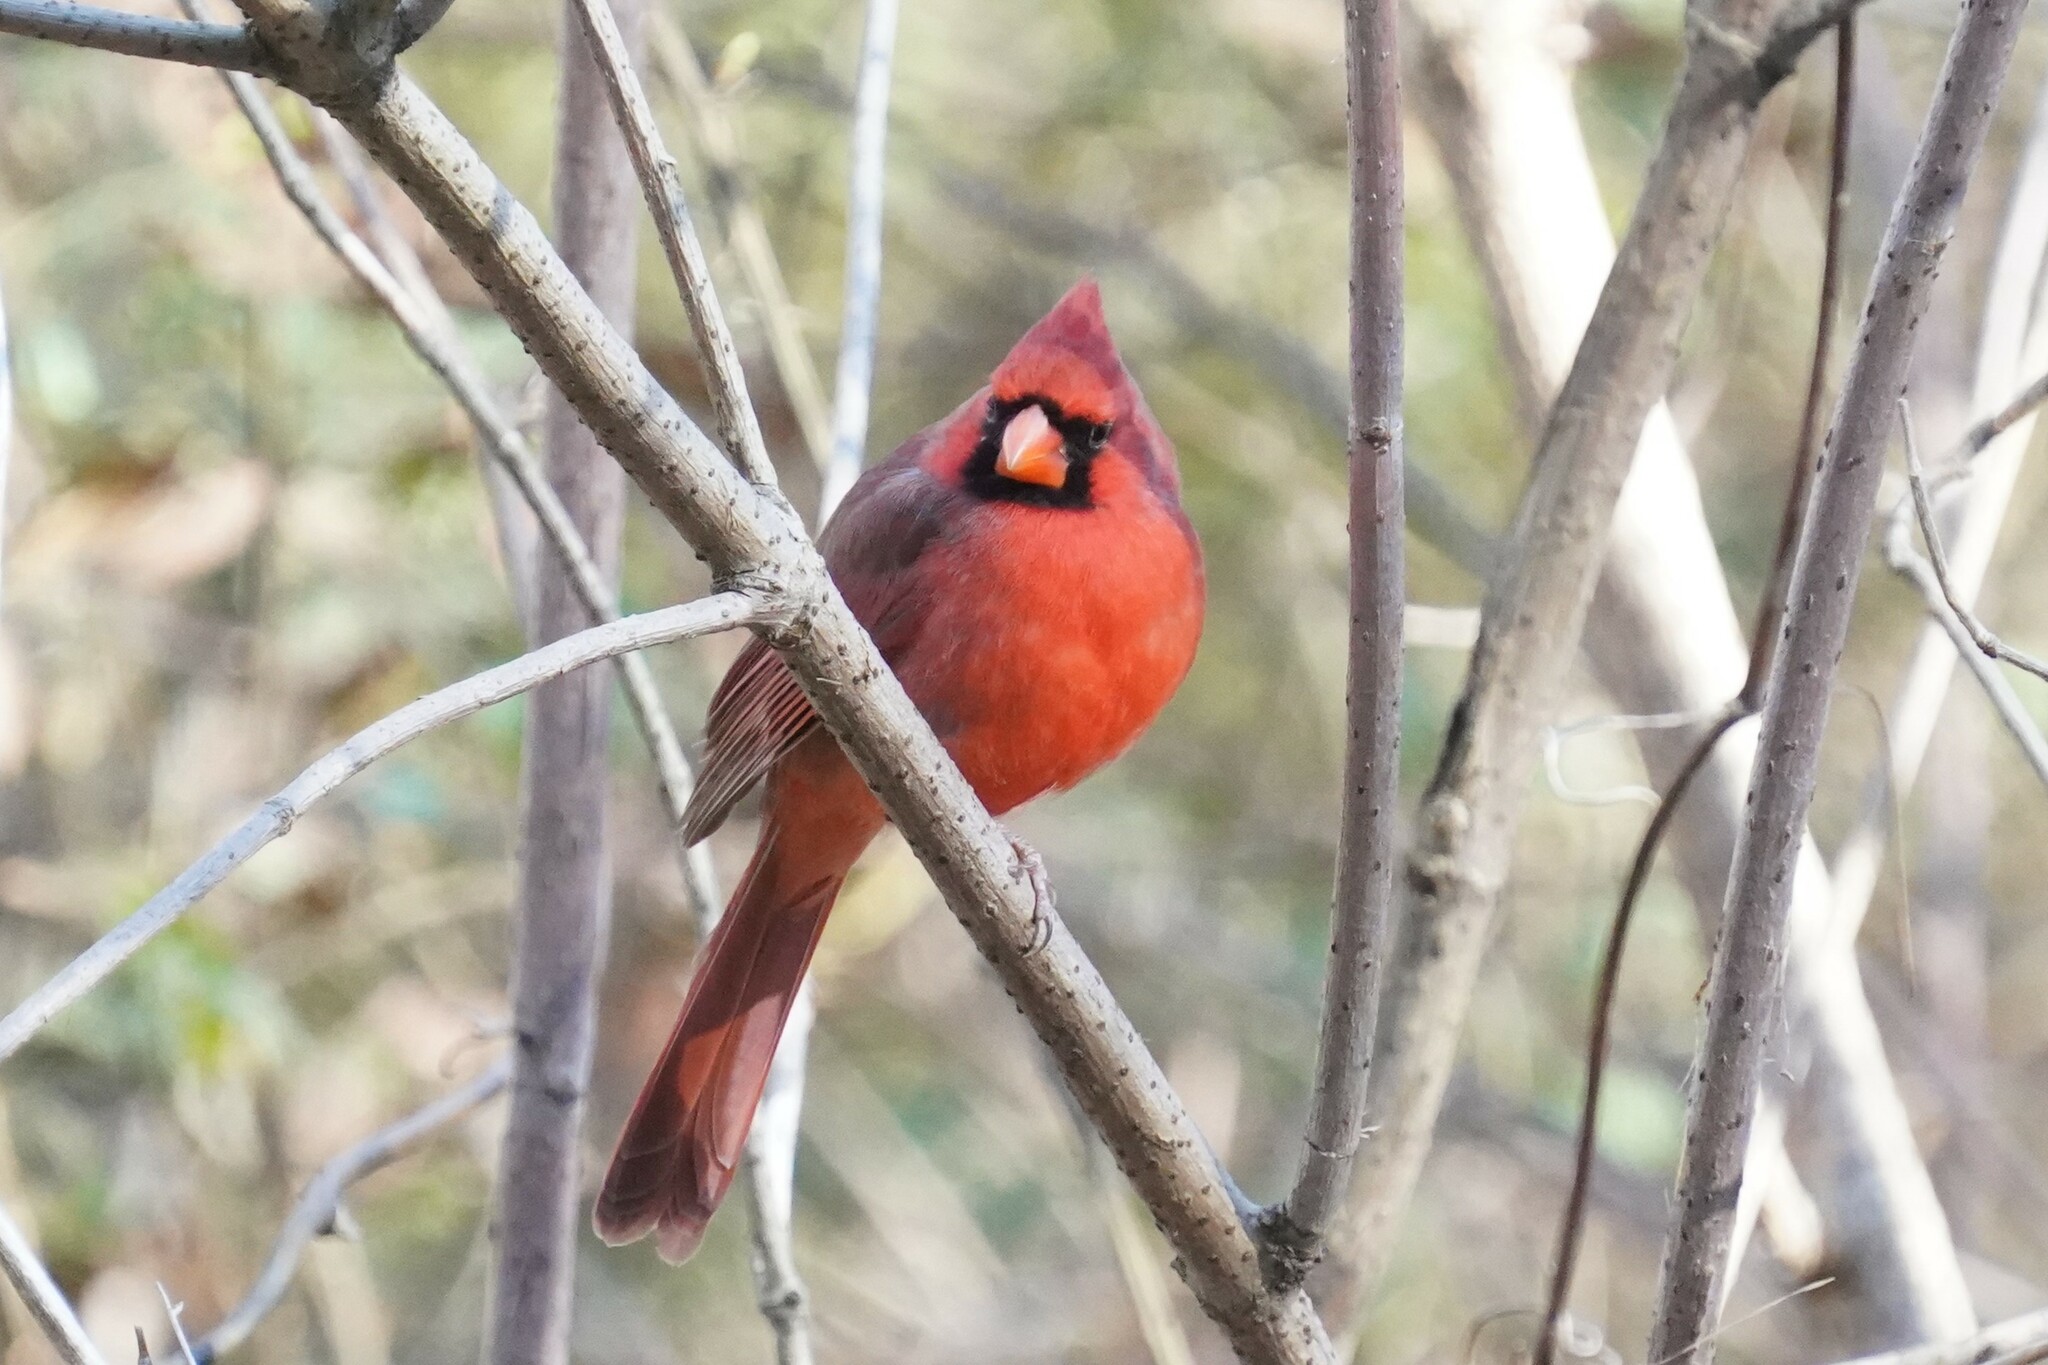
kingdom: Animalia
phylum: Chordata
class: Aves
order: Passeriformes
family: Cardinalidae
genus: Cardinalis
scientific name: Cardinalis cardinalis
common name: Northern cardinal
